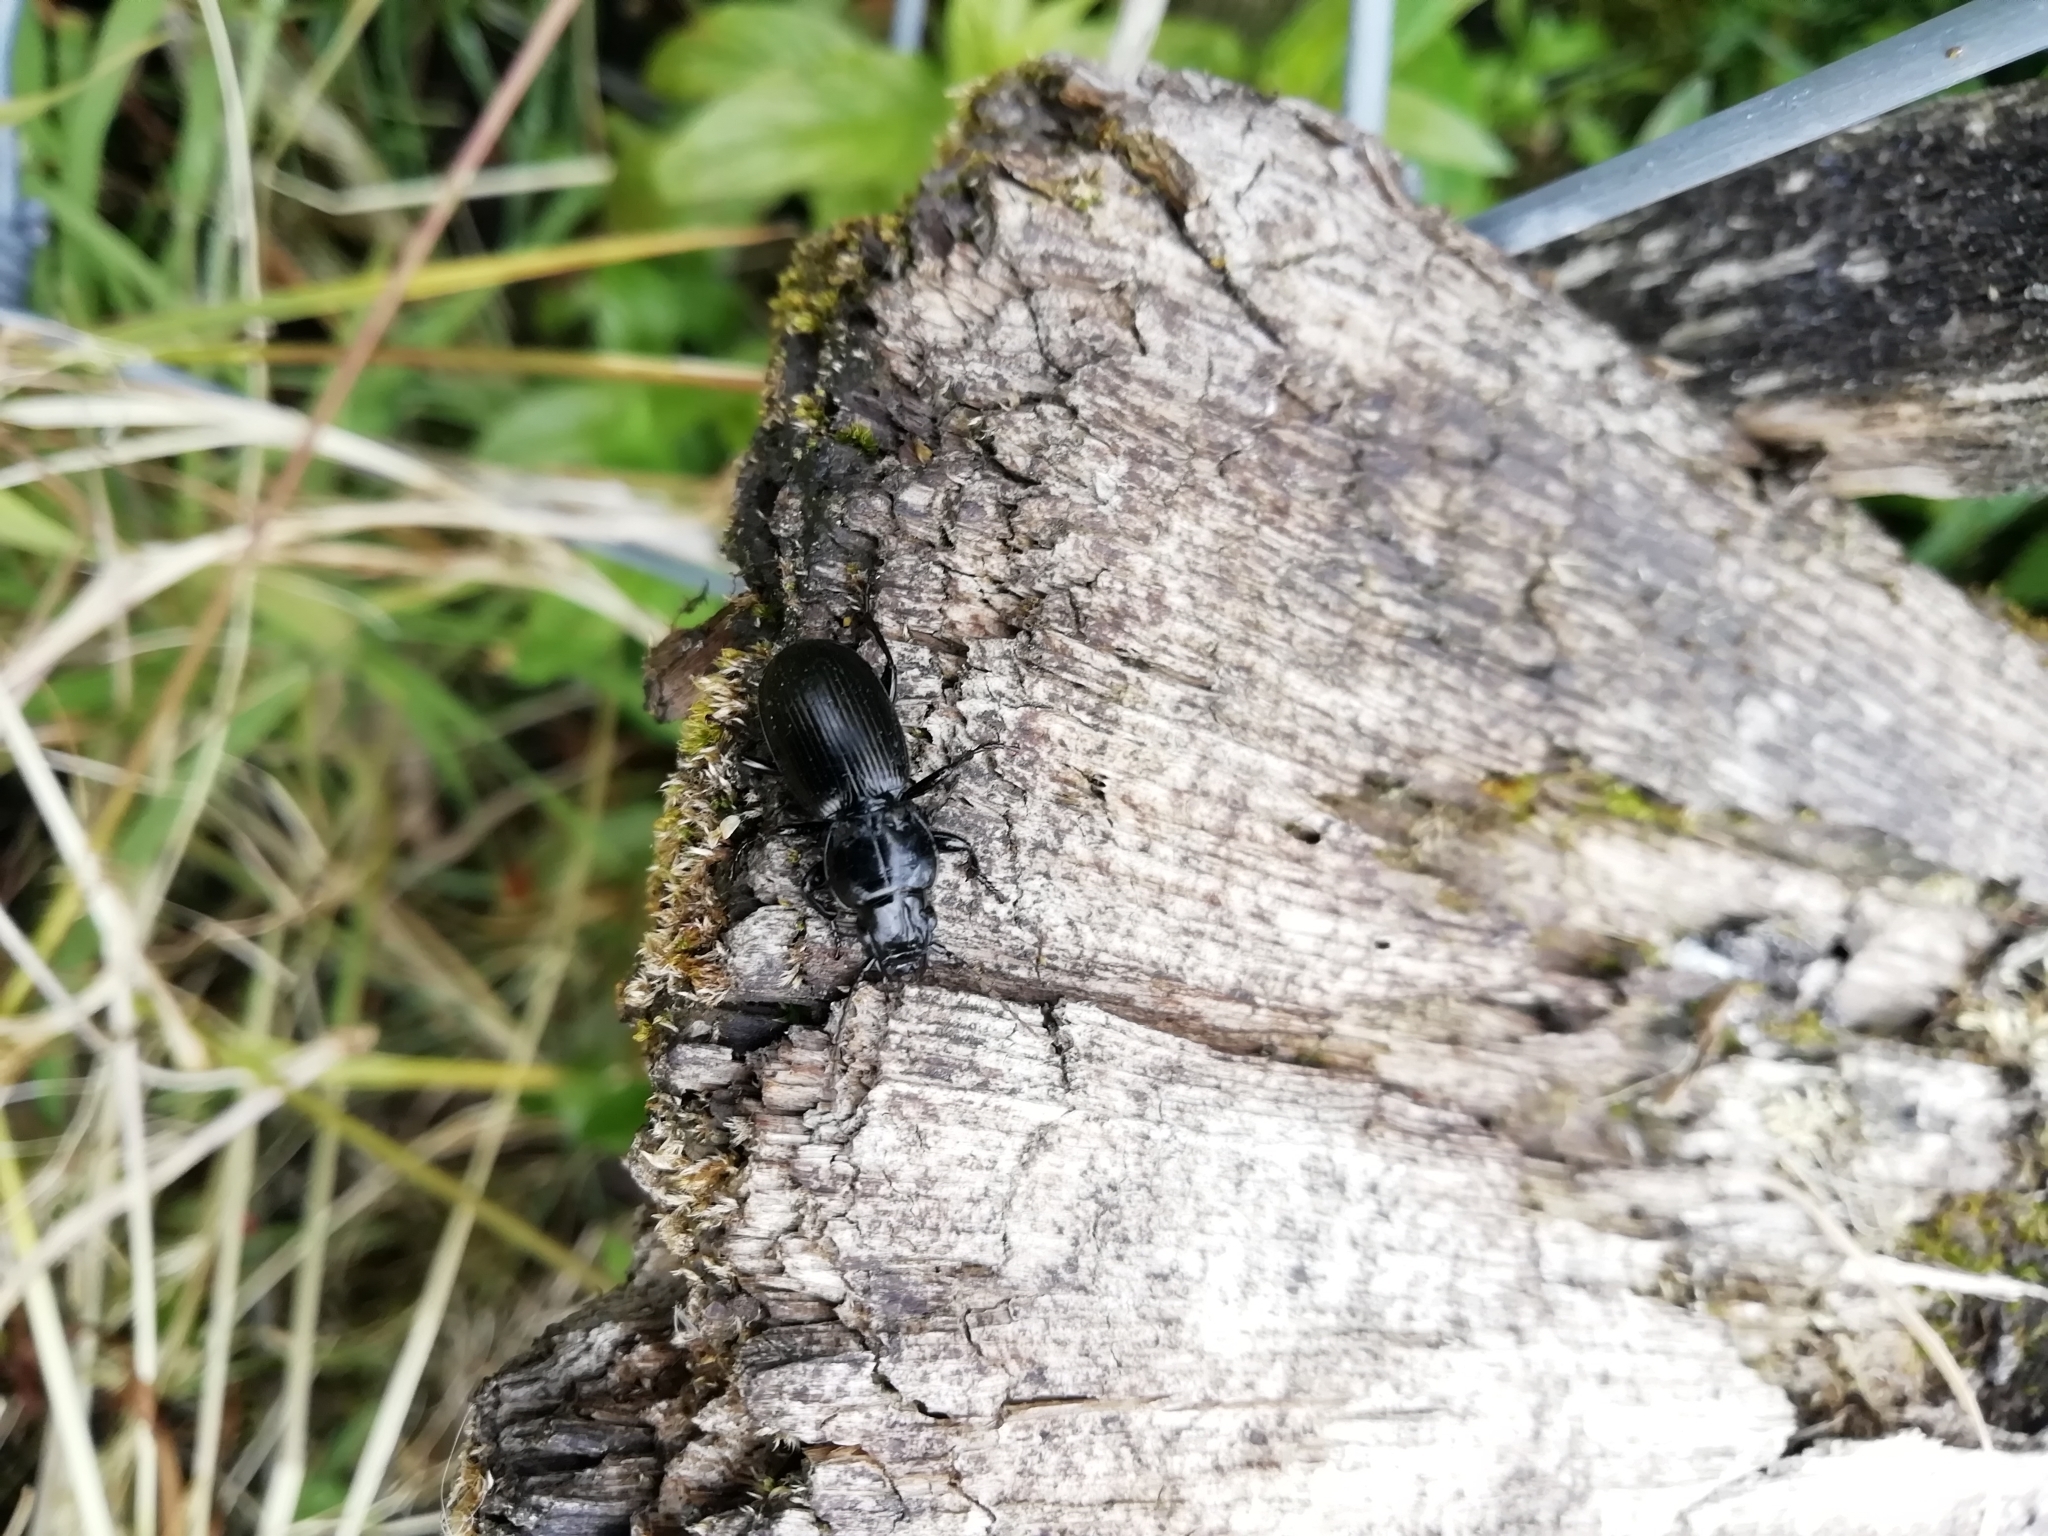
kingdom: Animalia
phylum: Arthropoda
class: Insecta
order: Coleoptera
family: Carabidae
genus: Pterostichus
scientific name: Pterostichus madidus
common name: Black clock
